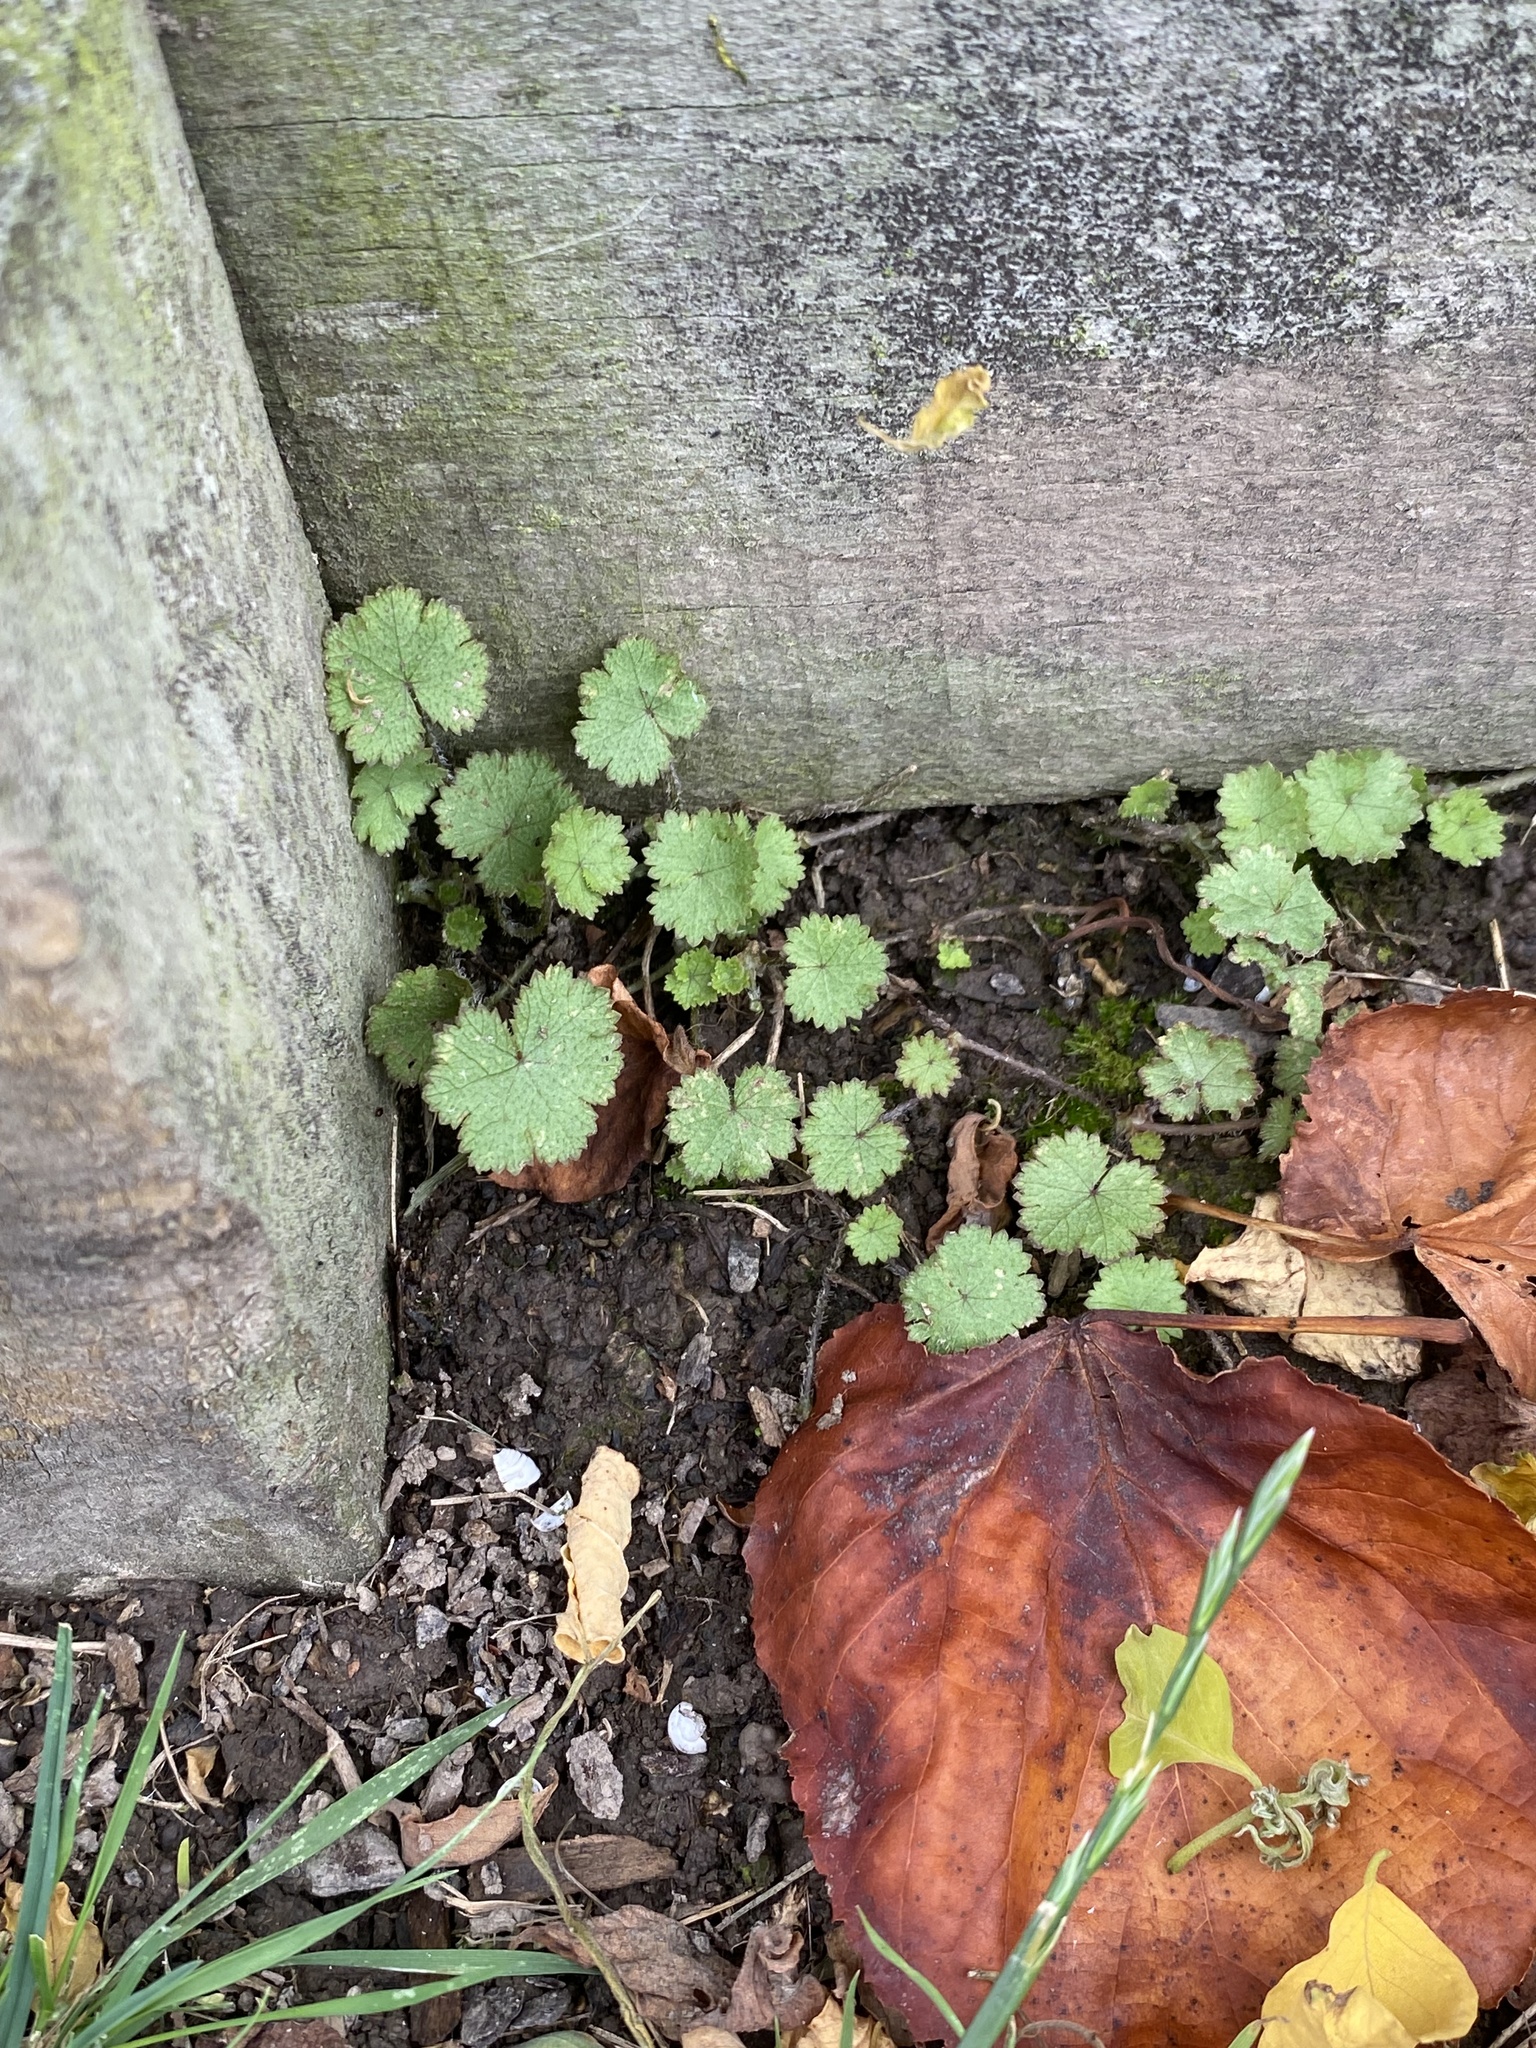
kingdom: Plantae
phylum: Tracheophyta
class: Magnoliopsida
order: Apiales
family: Araliaceae
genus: Hydrocotyle
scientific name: Hydrocotyle moschata
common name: Hairy pennywort
